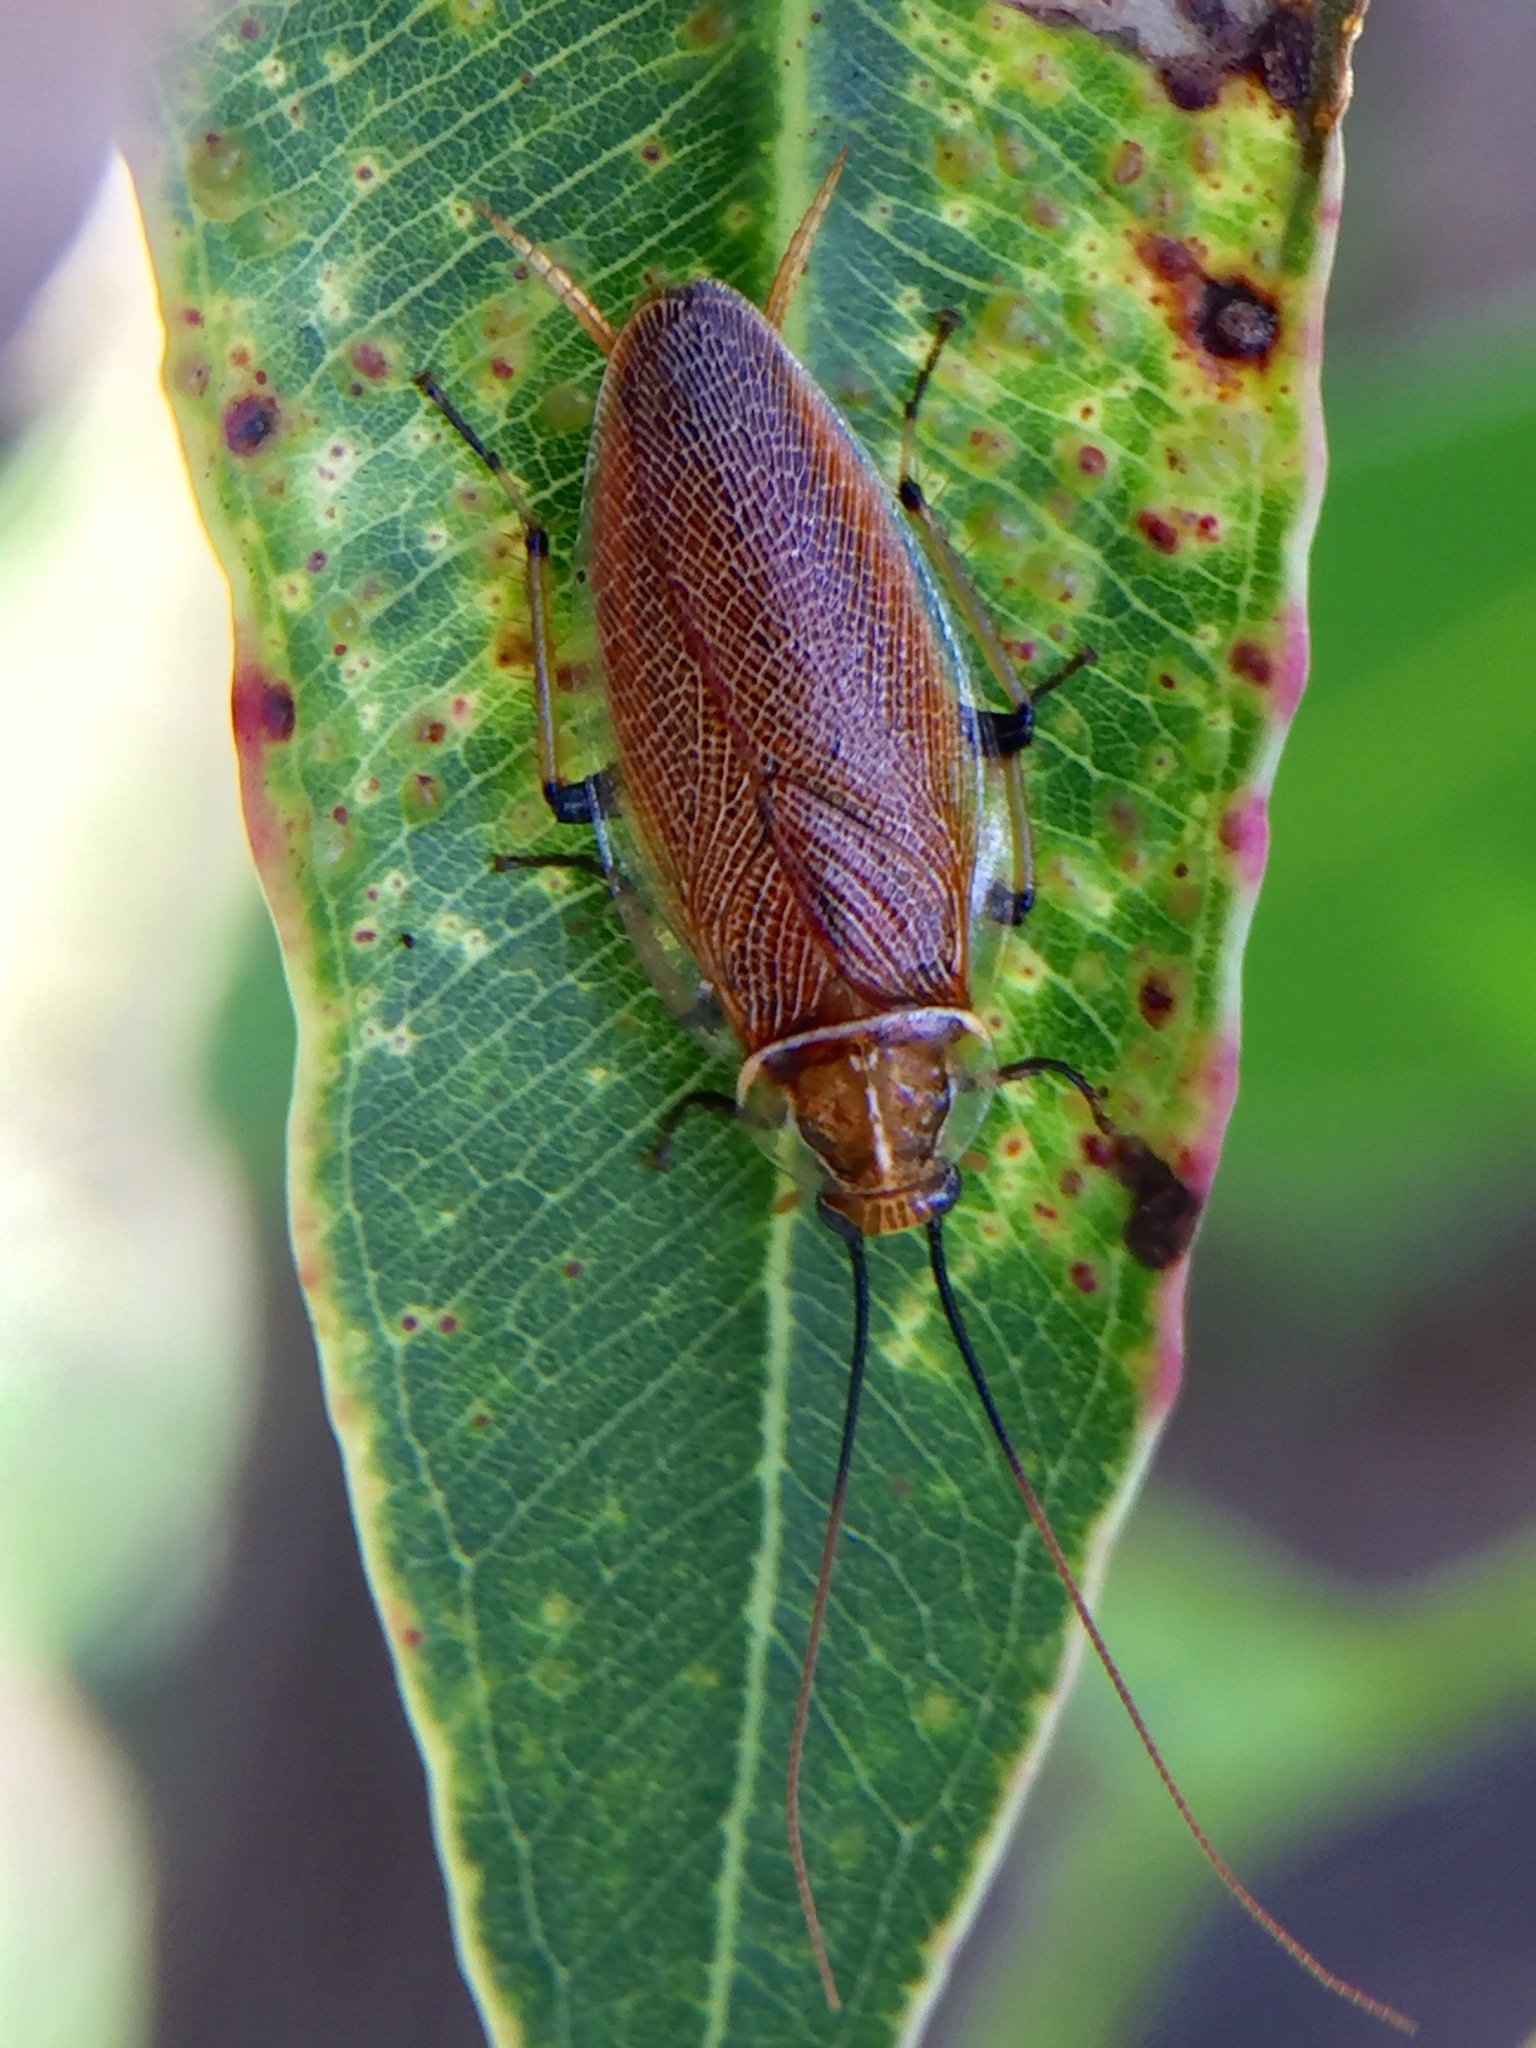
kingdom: Animalia
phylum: Arthropoda
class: Insecta
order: Blattodea
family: Ectobiidae
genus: Balta
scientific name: Balta bicolor
